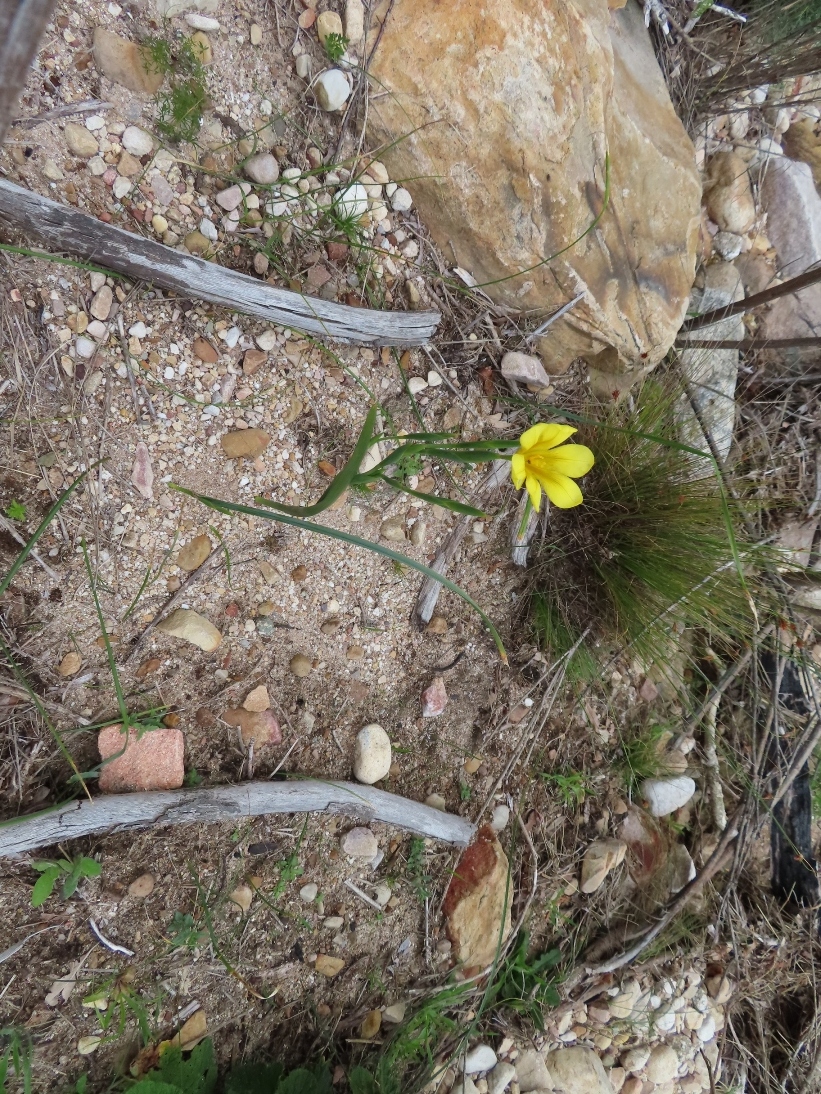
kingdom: Plantae
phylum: Tracheophyta
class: Liliopsida
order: Asparagales
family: Iridaceae
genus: Moraea
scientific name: Moraea ochroleuca
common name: Red tulp
